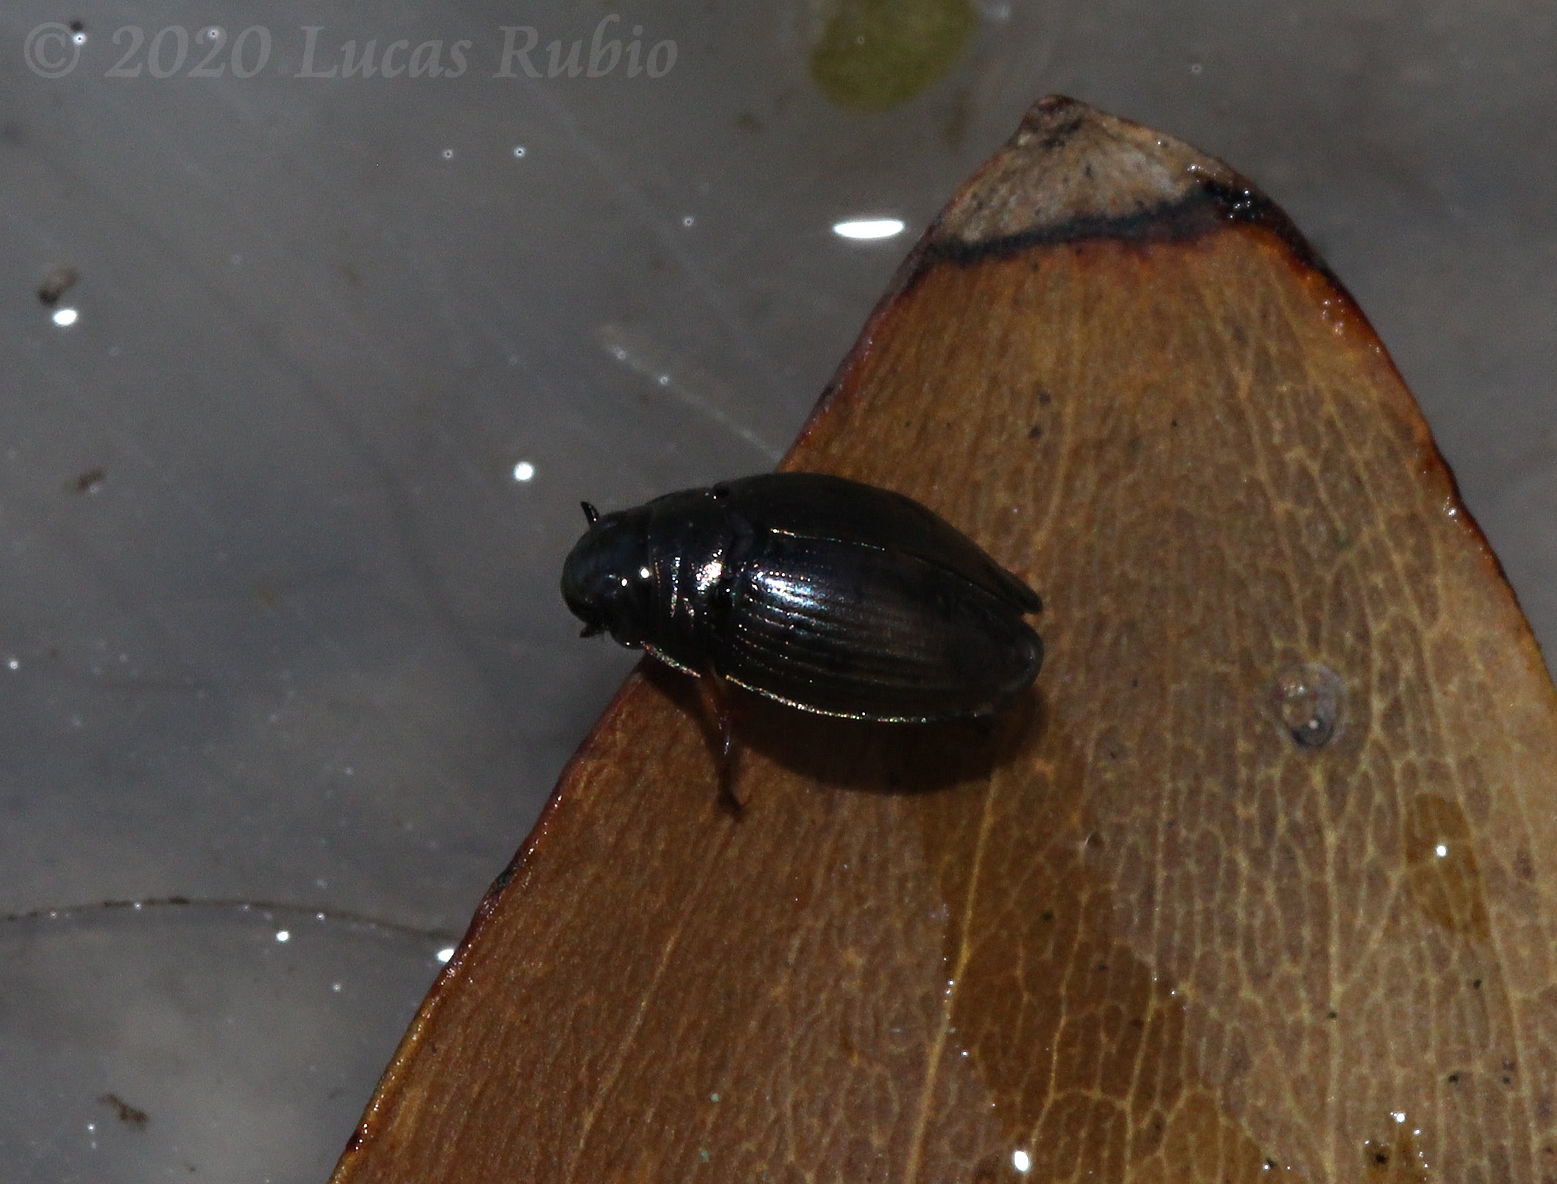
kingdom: Animalia
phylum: Arthropoda
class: Insecta
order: Coleoptera
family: Gyrinidae
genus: Gyrinus
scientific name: Gyrinus
